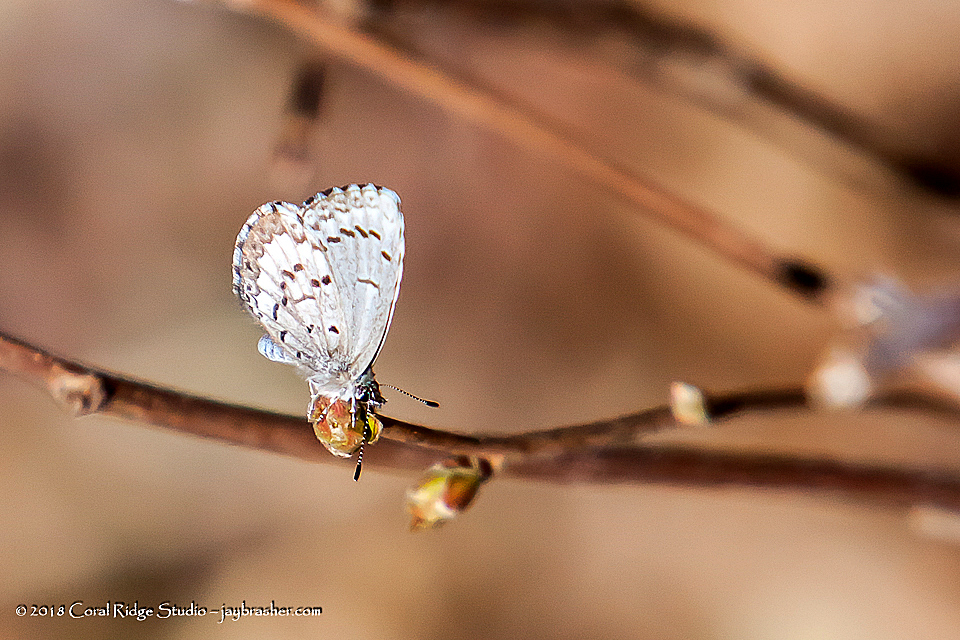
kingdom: Animalia
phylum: Arthropoda
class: Insecta
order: Lepidoptera
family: Lycaenidae
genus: Celastrina
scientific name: Celastrina lucia
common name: Lucia azure
